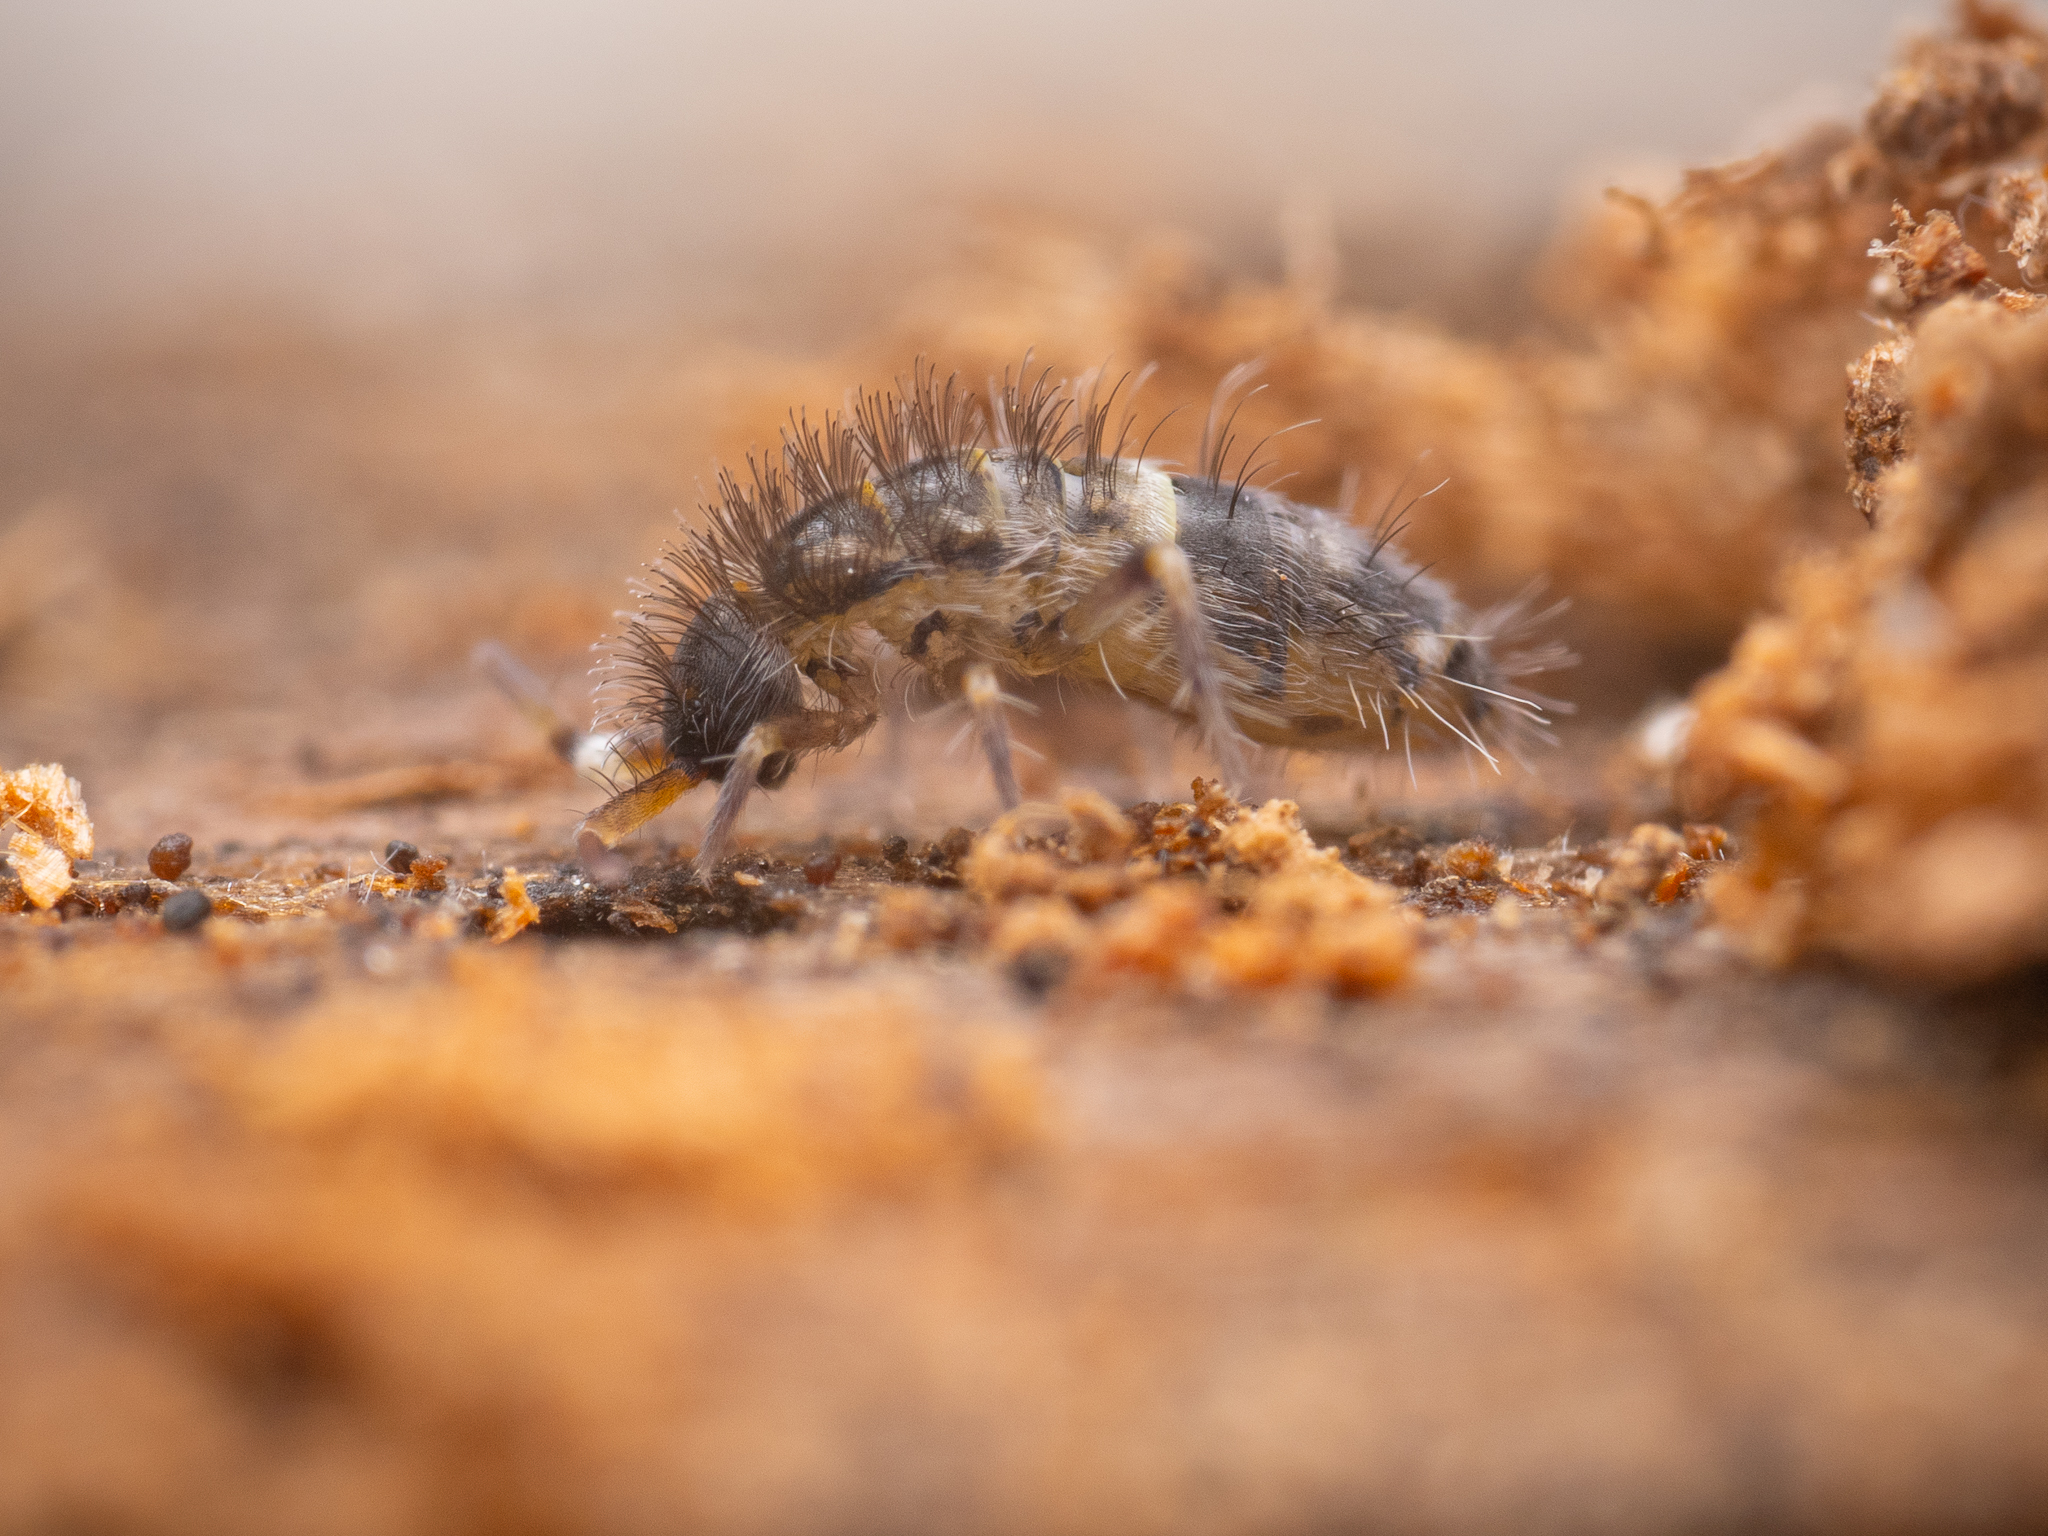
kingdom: Animalia
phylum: Arthropoda
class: Collembola
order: Entomobryomorpha
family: Orchesellidae
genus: Orchesella
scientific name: Orchesella cincta
